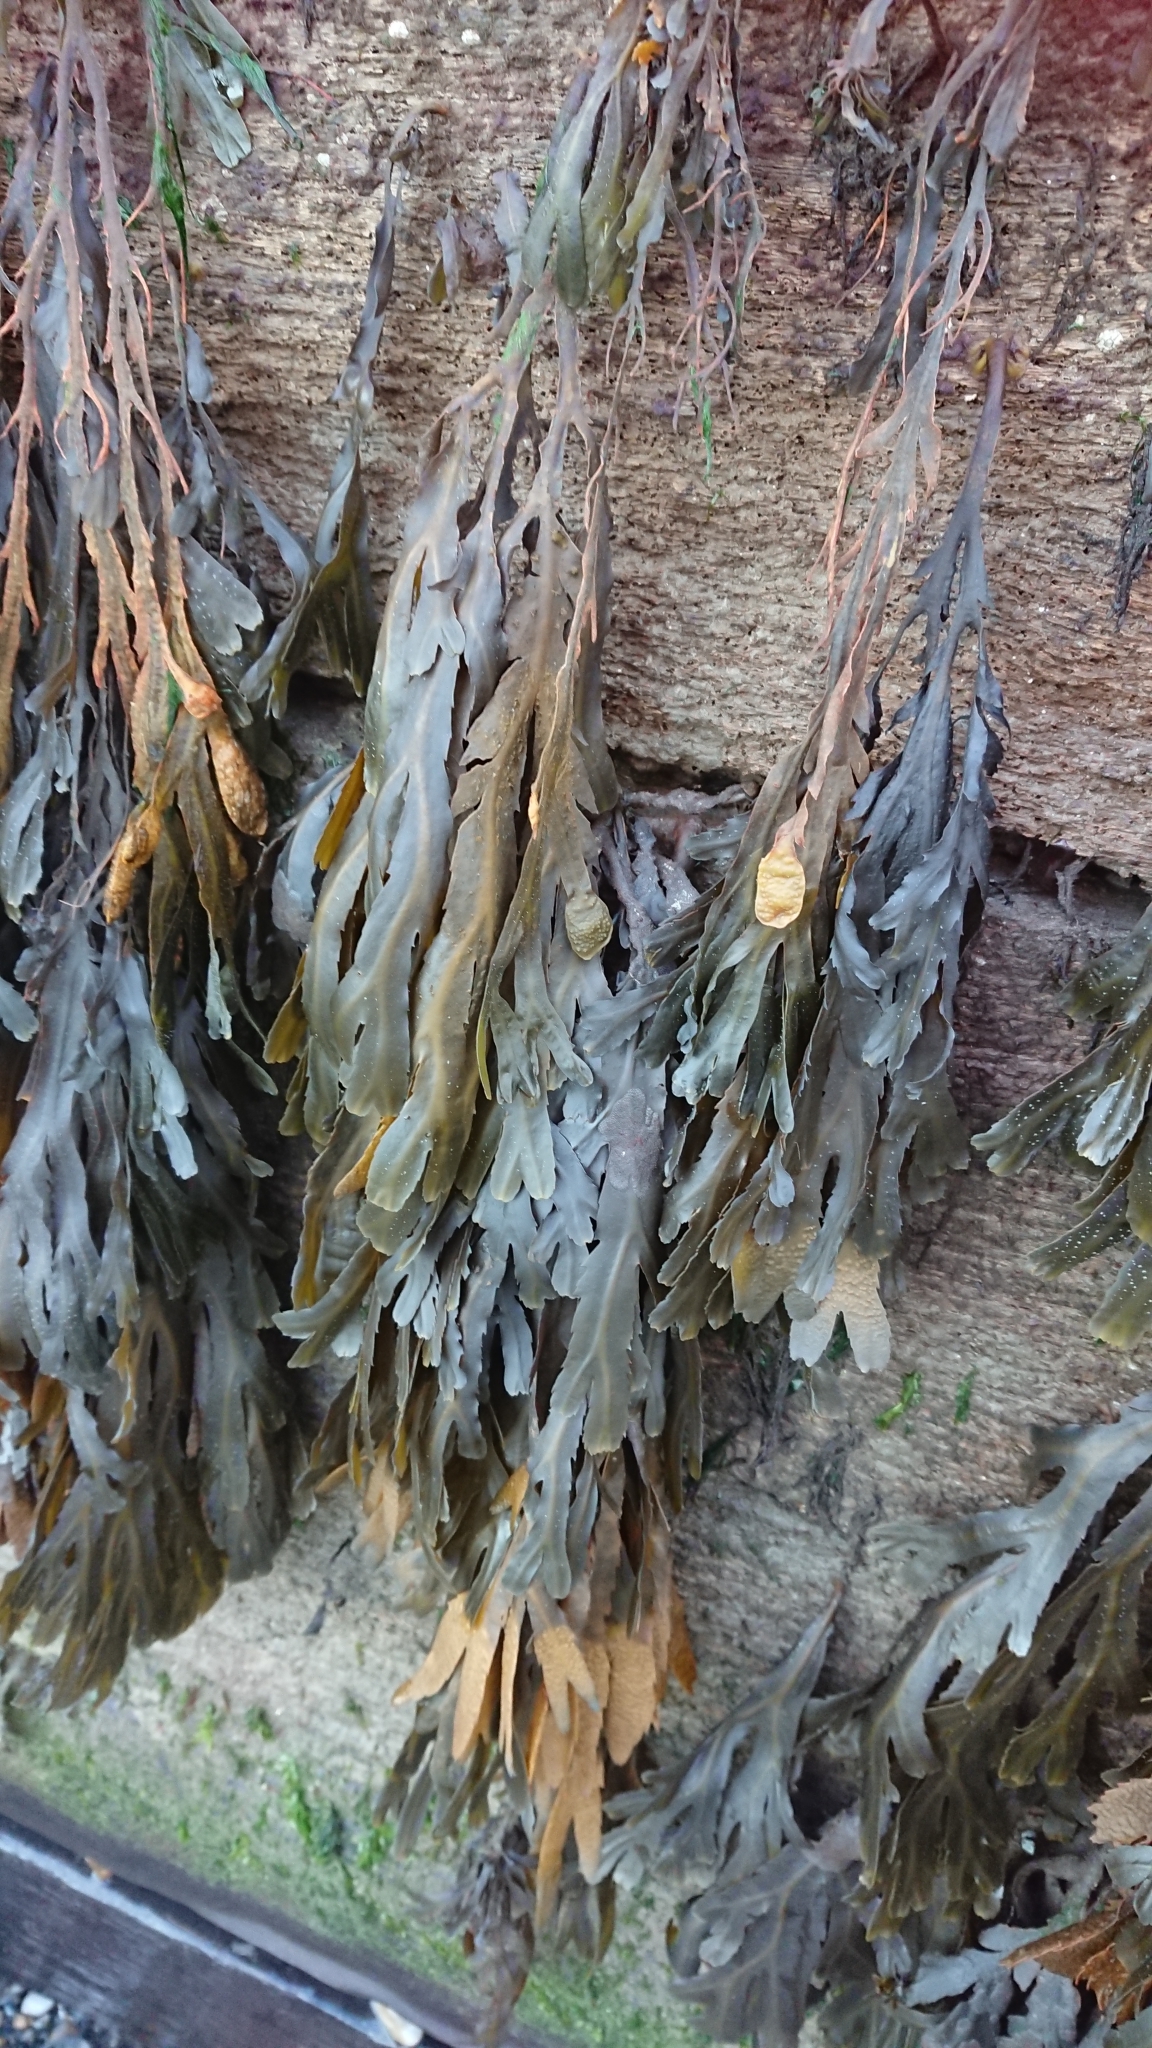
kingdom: Chromista
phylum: Ochrophyta
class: Phaeophyceae
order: Fucales
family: Fucaceae
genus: Fucus
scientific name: Fucus serratus
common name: Toothed wrack
